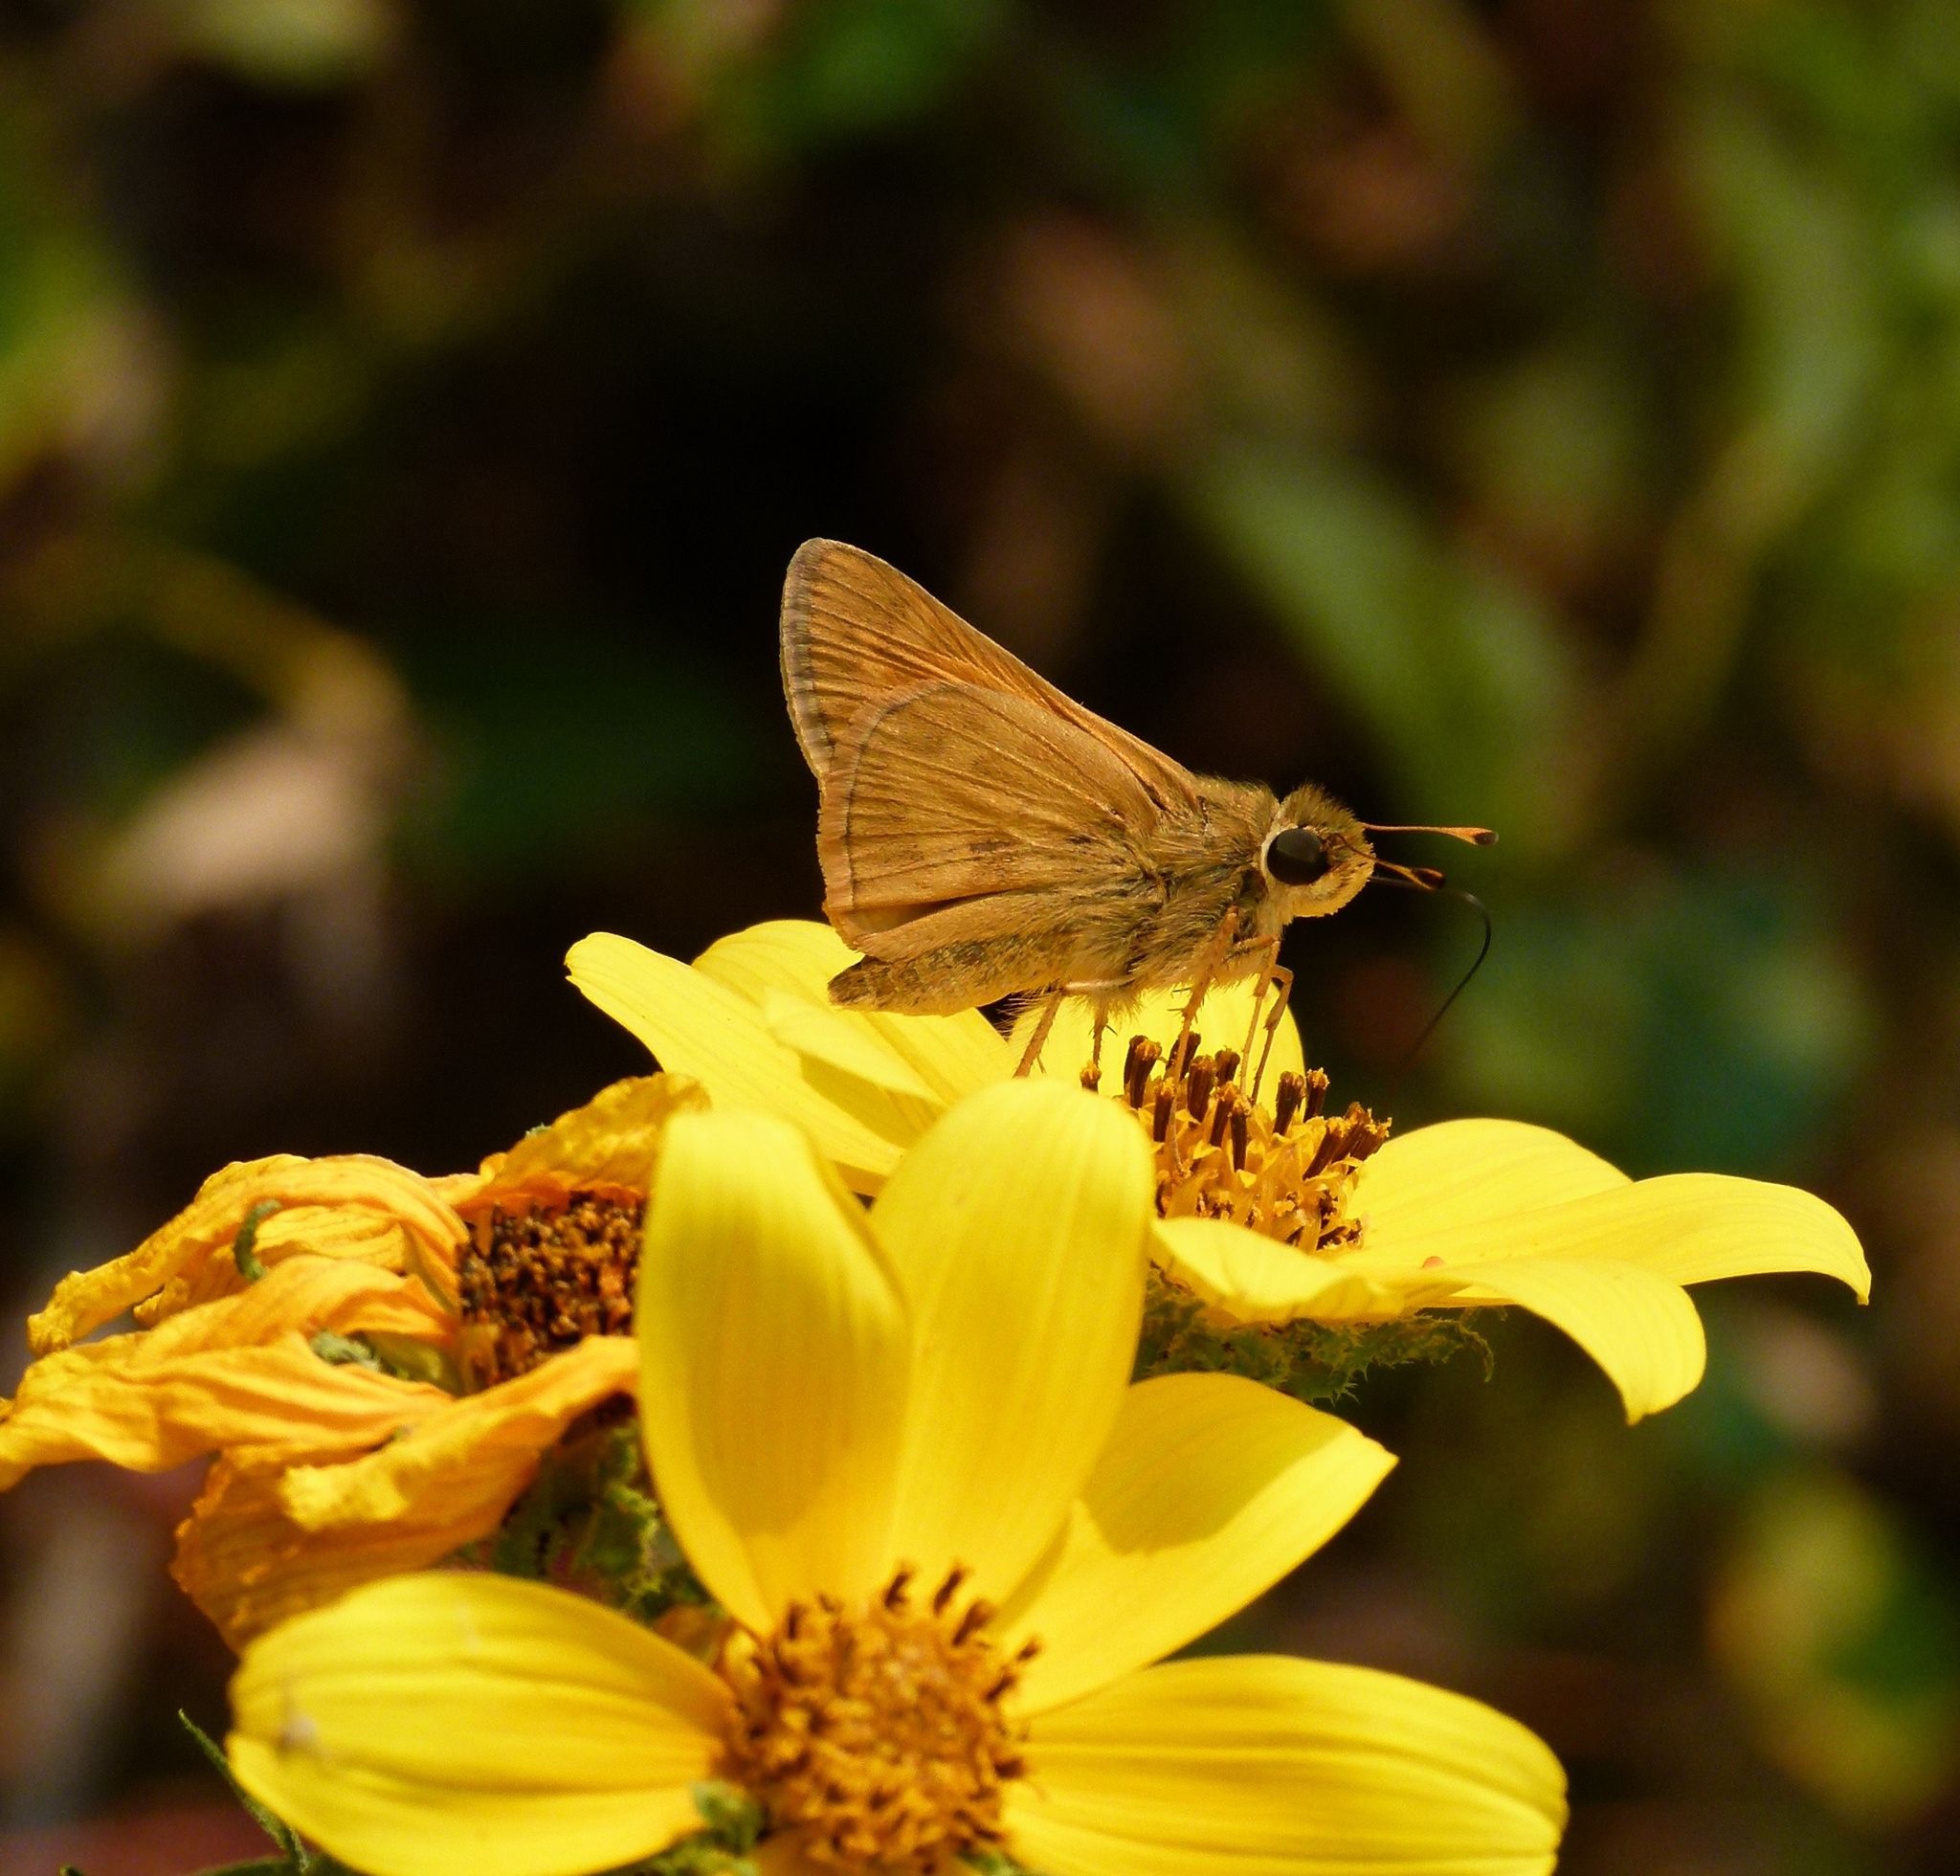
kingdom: Animalia
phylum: Arthropoda
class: Insecta
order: Lepidoptera
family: Hesperiidae
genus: Atalopedes
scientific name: Atalopedes
